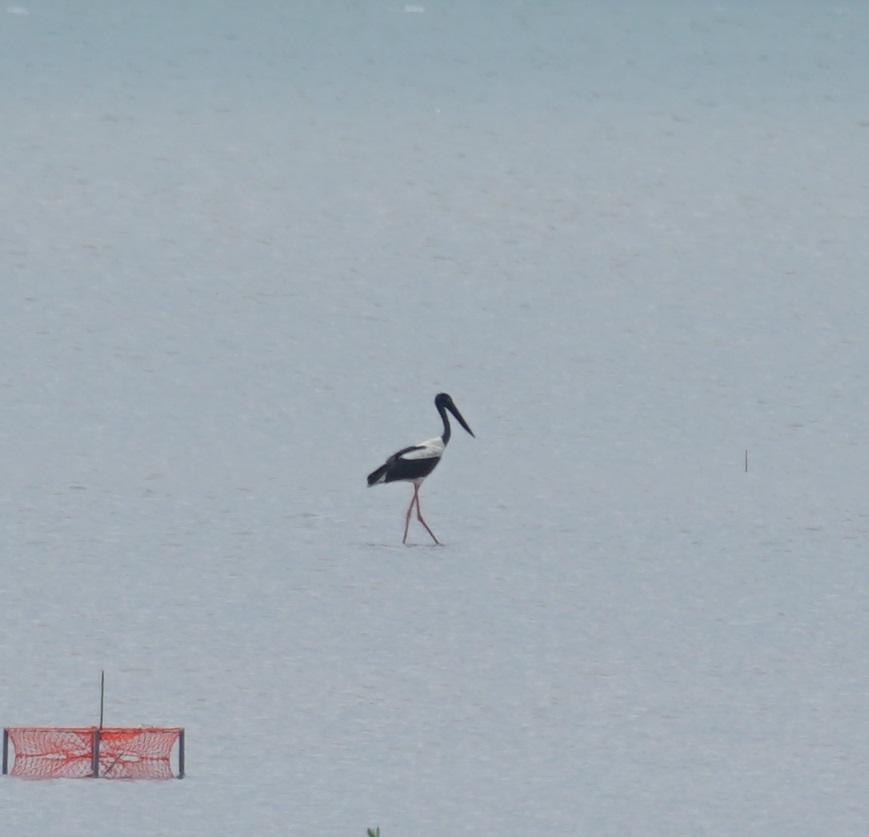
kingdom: Animalia
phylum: Chordata
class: Aves
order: Ciconiiformes
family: Ciconiidae
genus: Ephippiorhynchus
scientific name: Ephippiorhynchus asiaticus
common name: Black-necked stork
